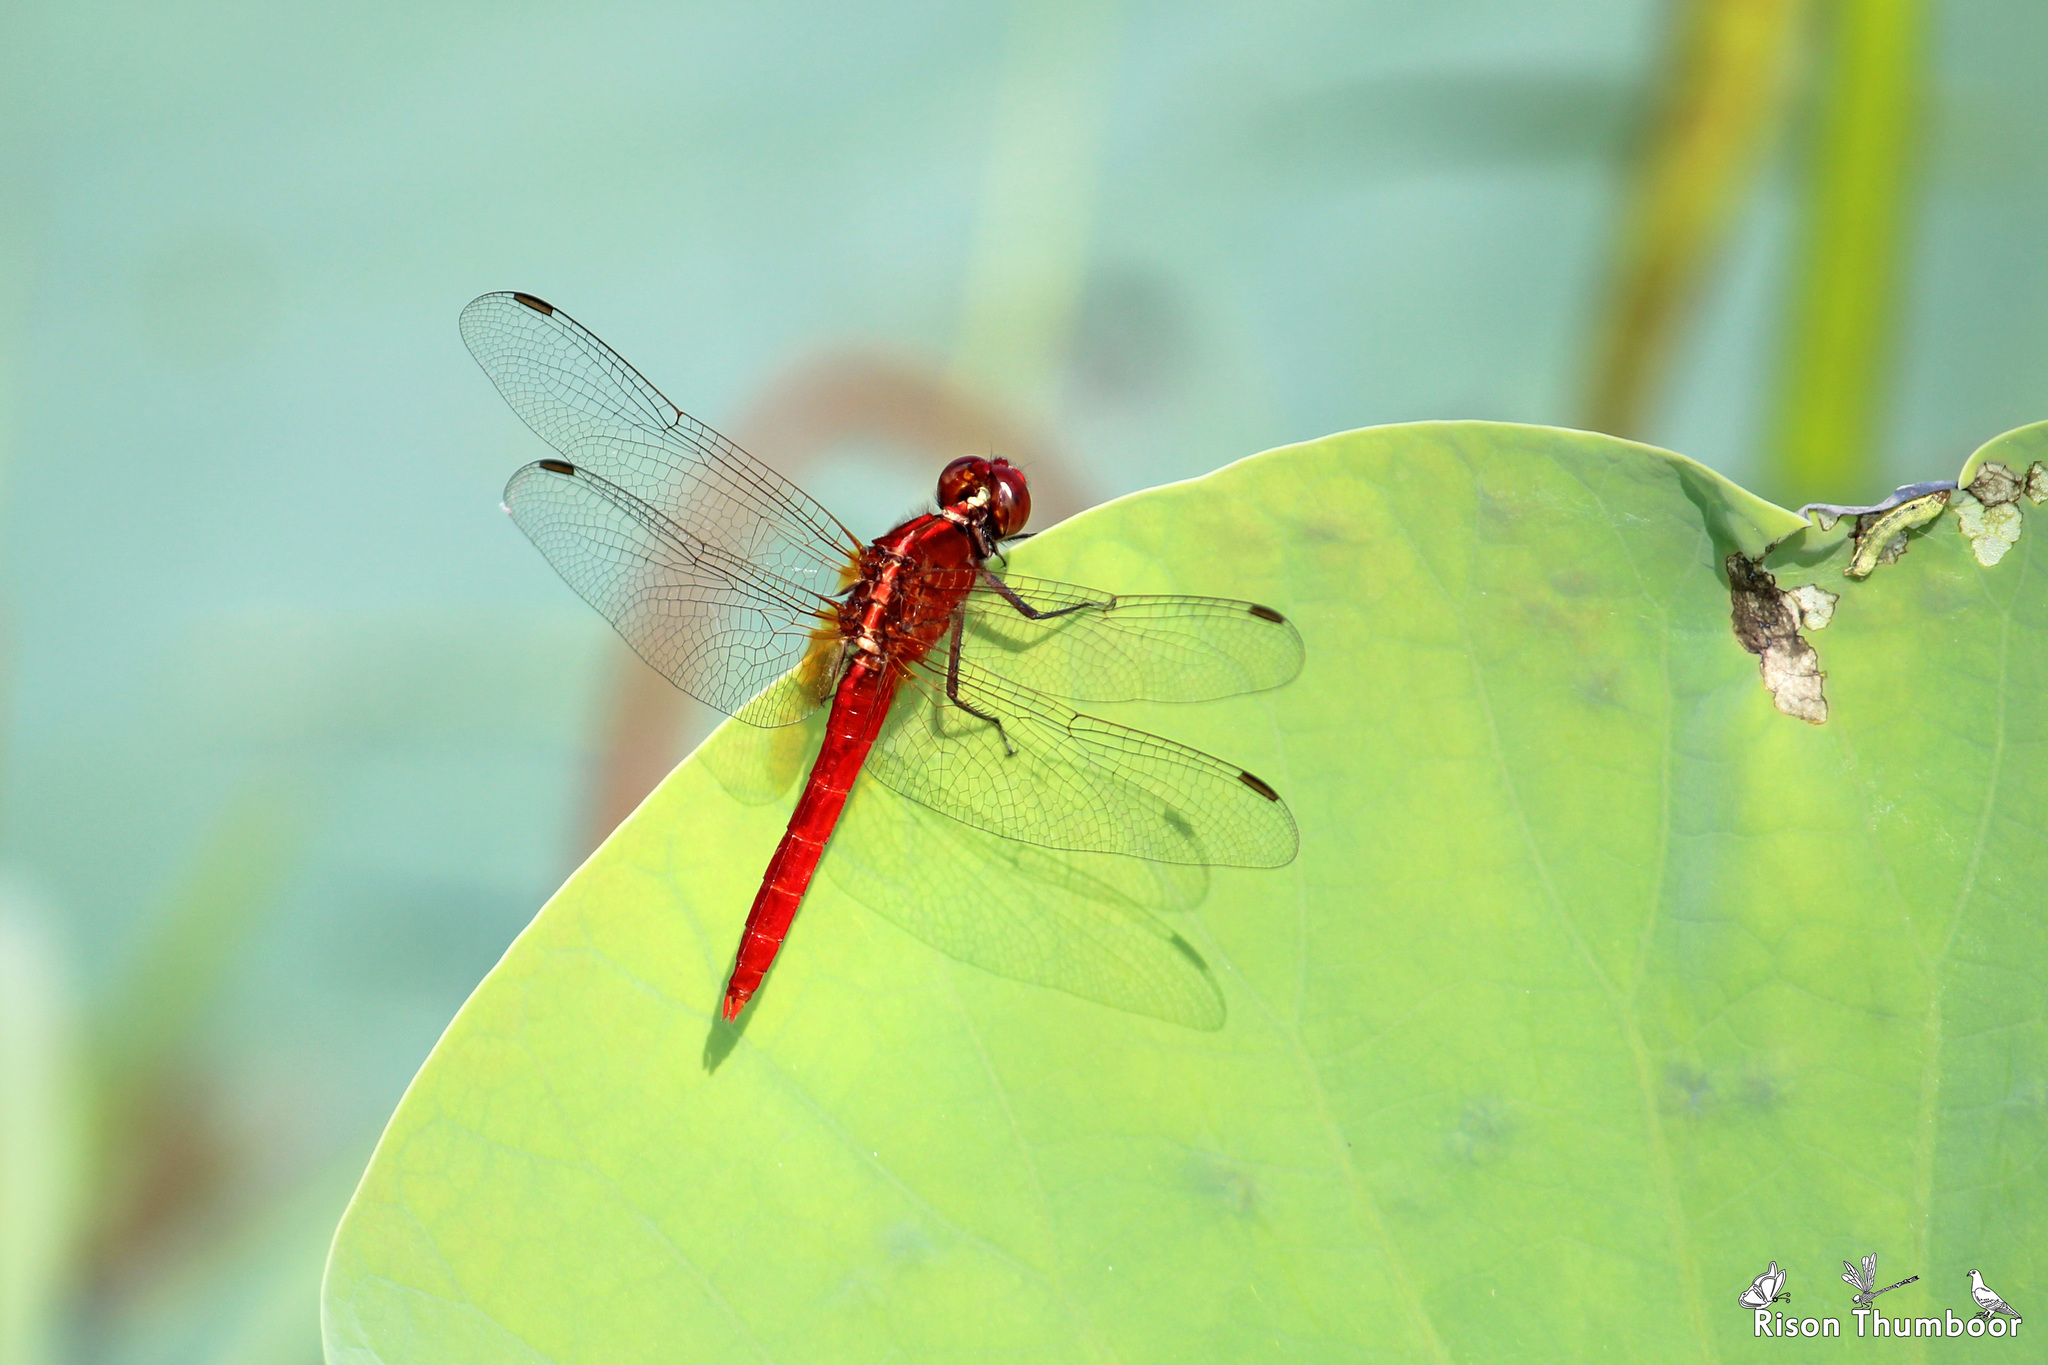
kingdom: Animalia
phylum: Arthropoda
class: Insecta
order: Odonata
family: Libellulidae
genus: Rhodothemis
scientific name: Rhodothemis rufa
